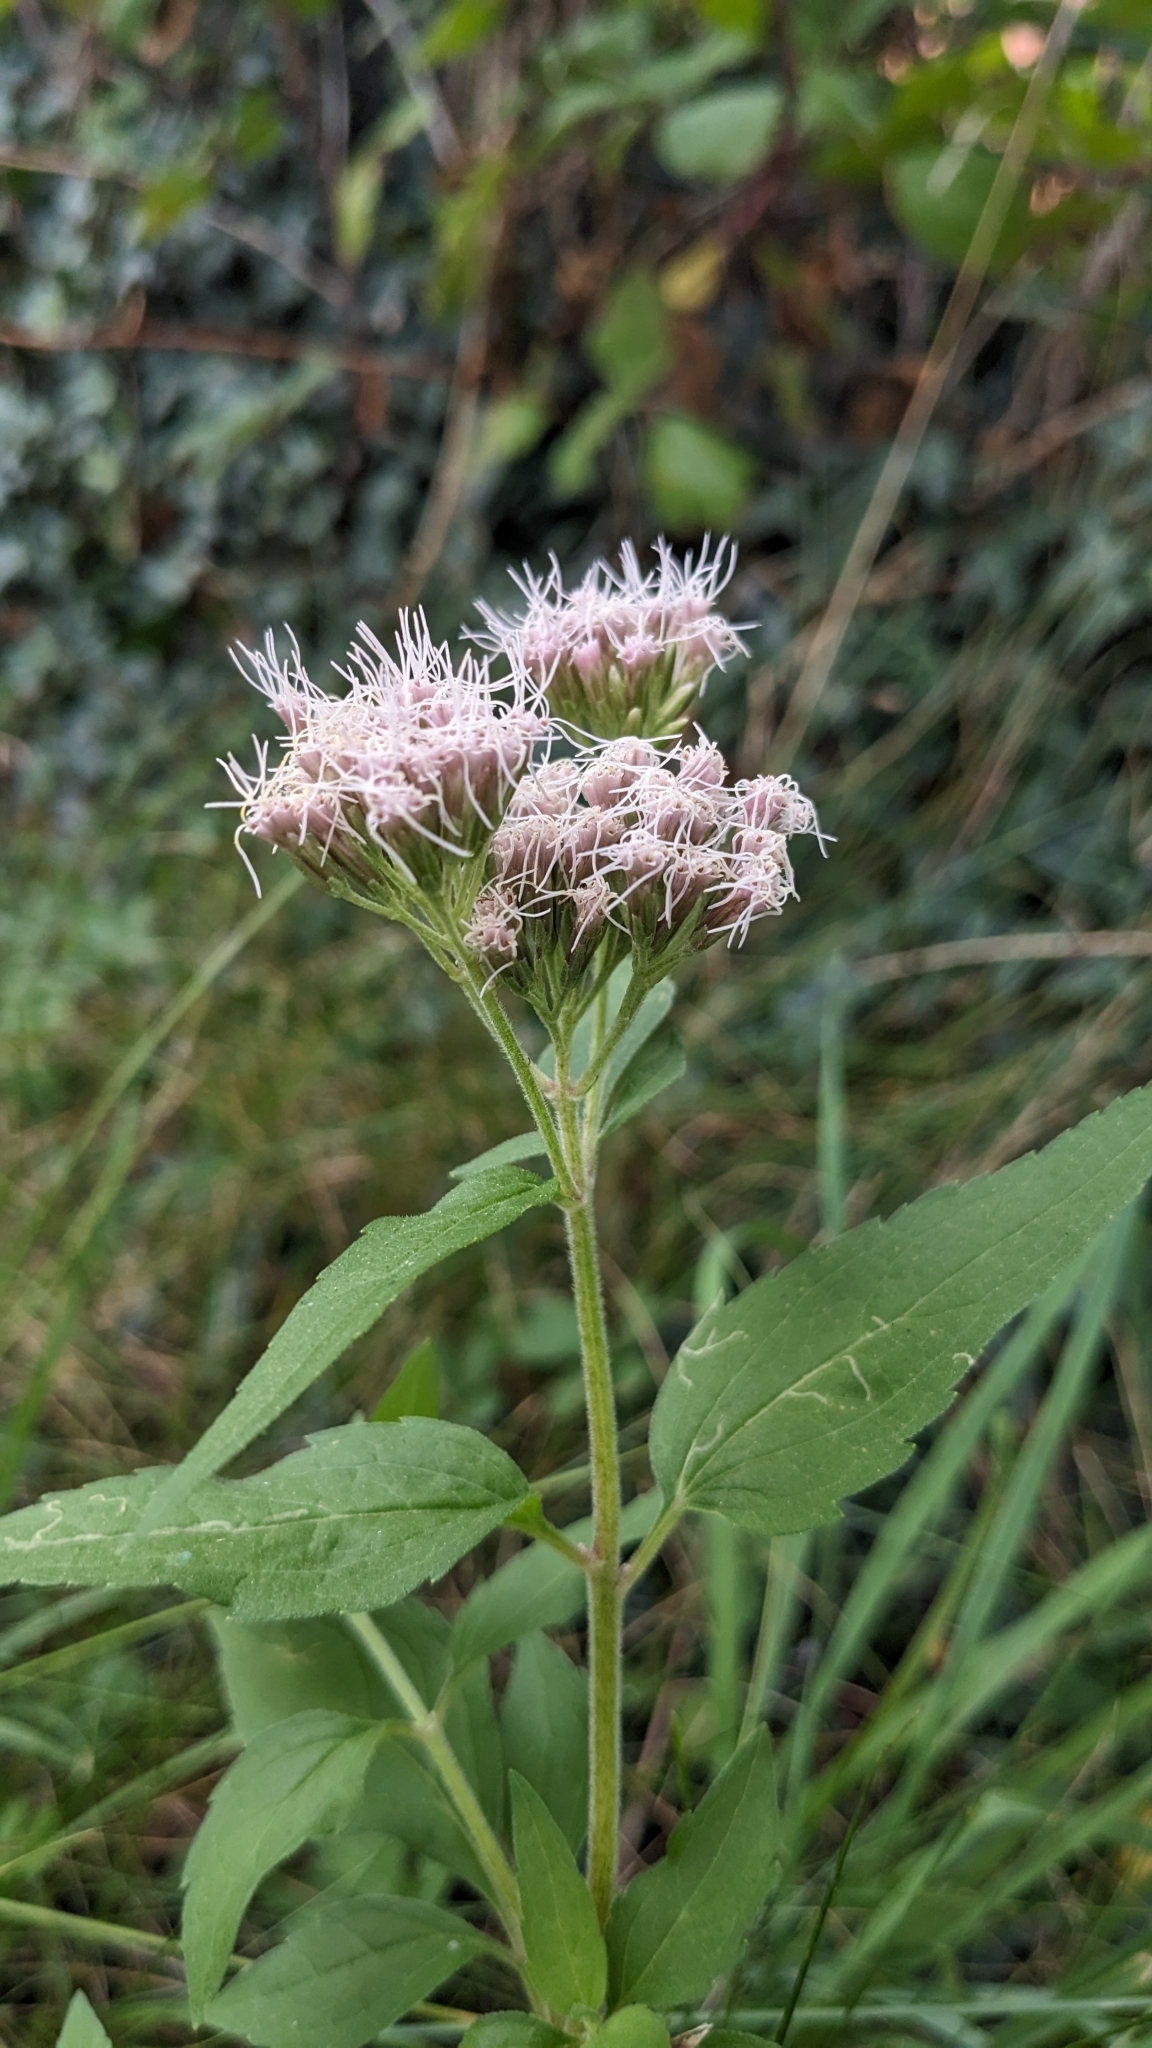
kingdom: Plantae
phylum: Tracheophyta
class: Magnoliopsida
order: Asterales
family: Asteraceae
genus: Eupatorium
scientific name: Eupatorium cannabinum
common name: Hemp-agrimony
